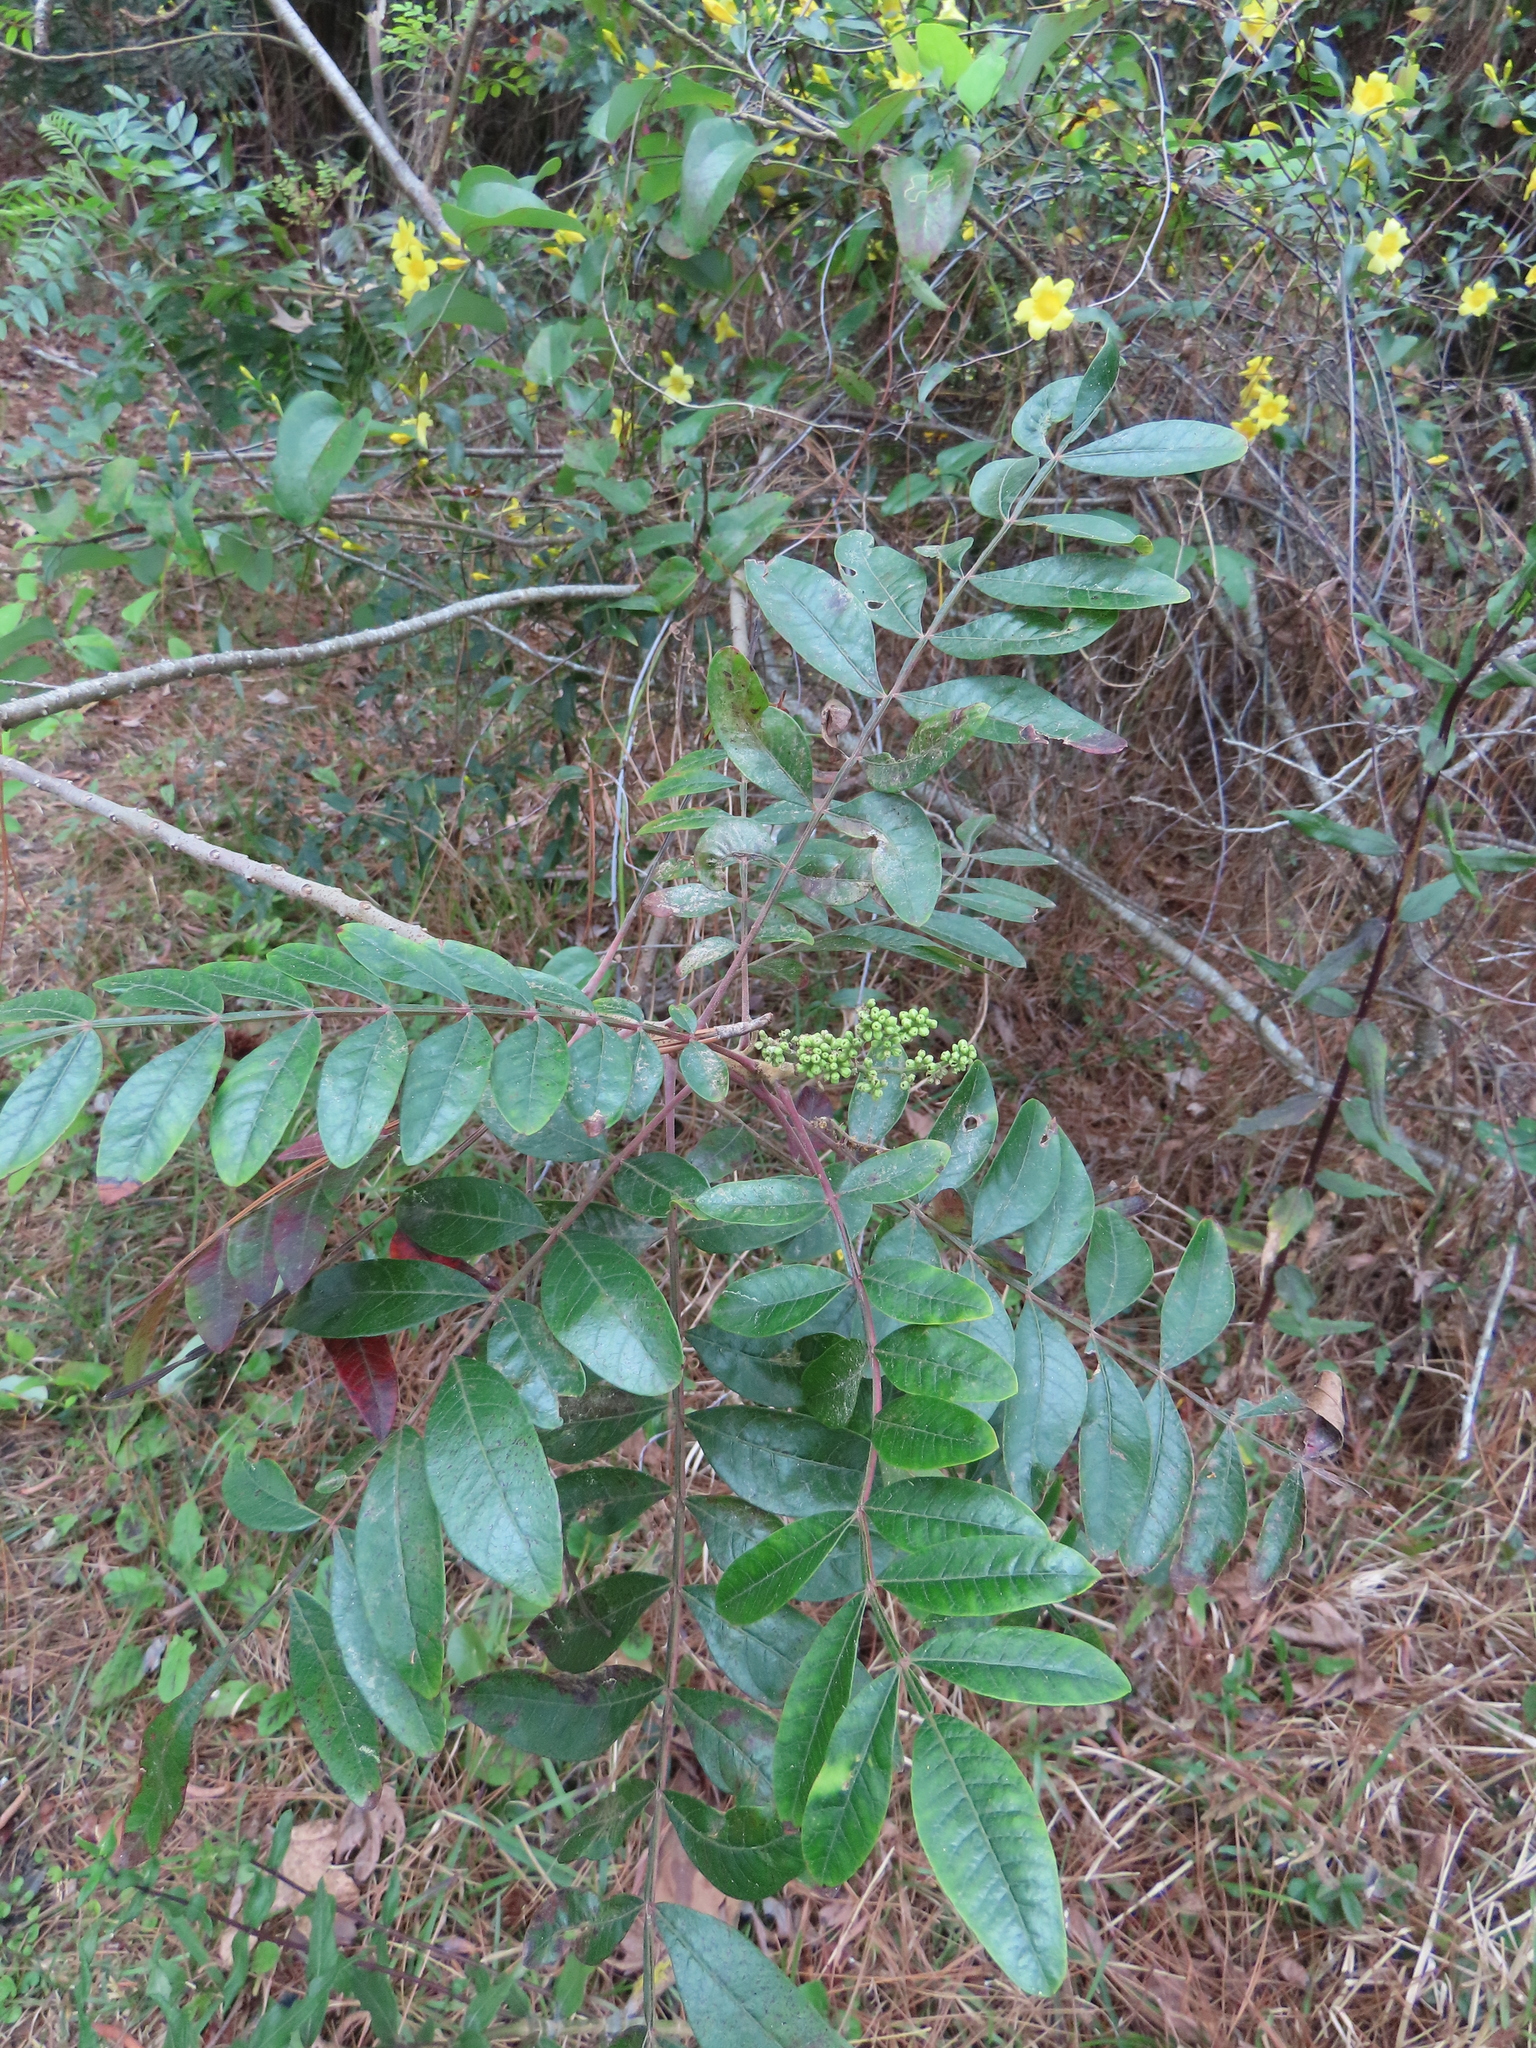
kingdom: Plantae
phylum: Tracheophyta
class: Magnoliopsida
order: Sapindales
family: Anacardiaceae
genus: Rhus
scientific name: Rhus copallina
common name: Shining sumac
